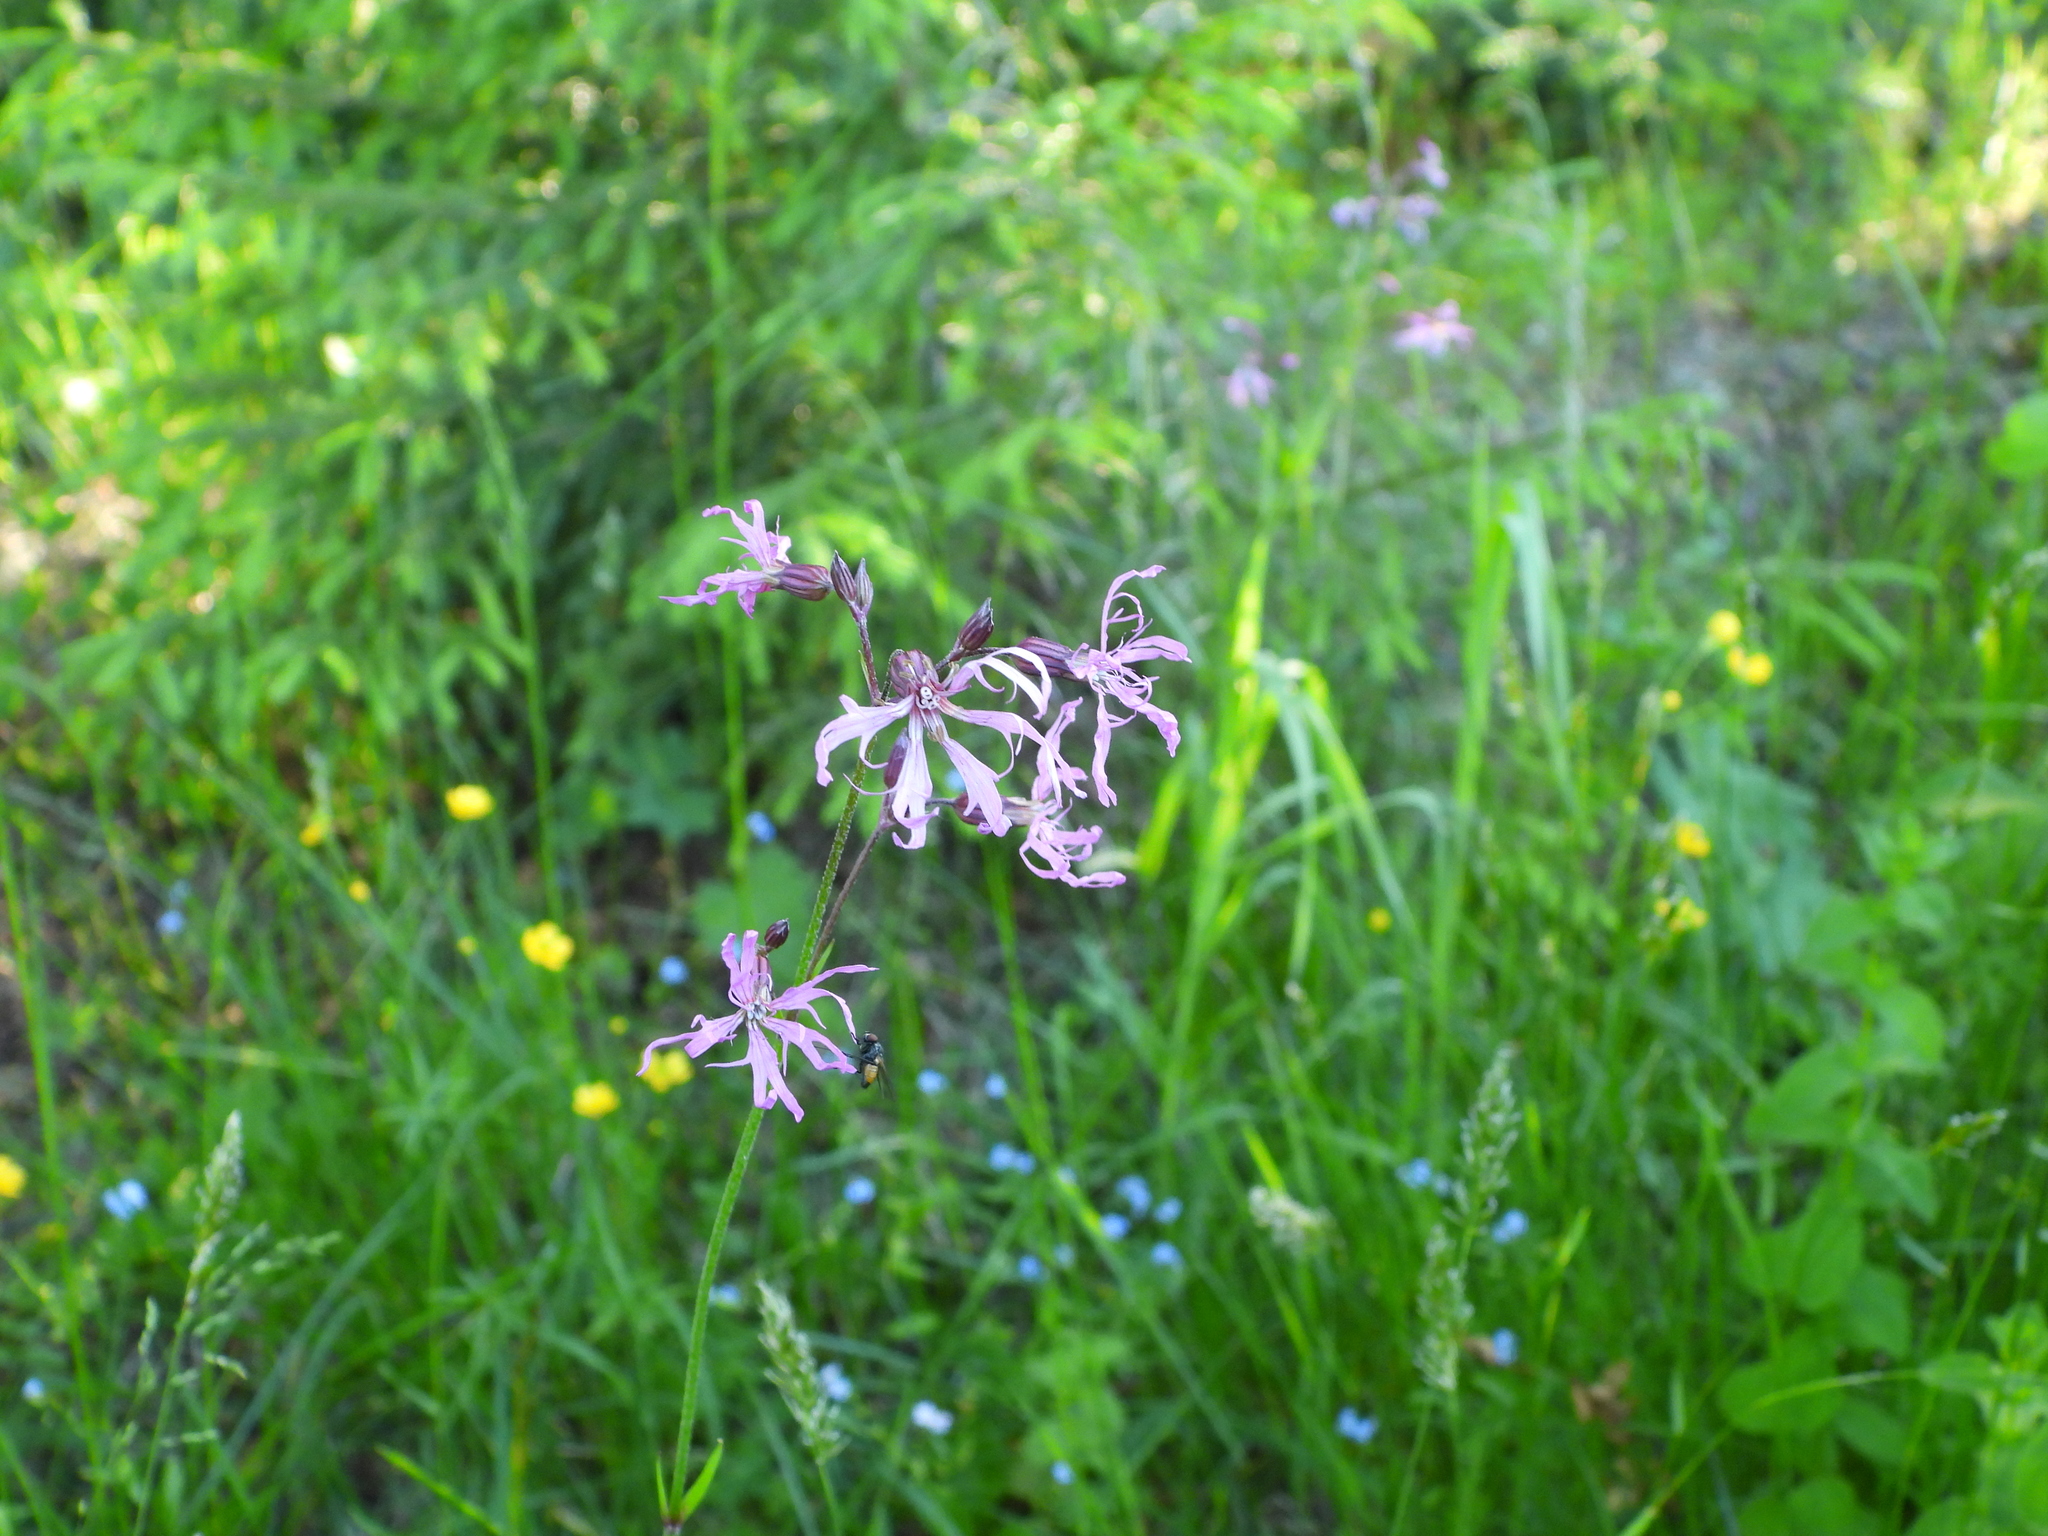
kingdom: Plantae
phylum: Tracheophyta
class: Magnoliopsida
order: Caryophyllales
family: Caryophyllaceae
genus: Silene
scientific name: Silene flos-cuculi
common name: Ragged-robin
